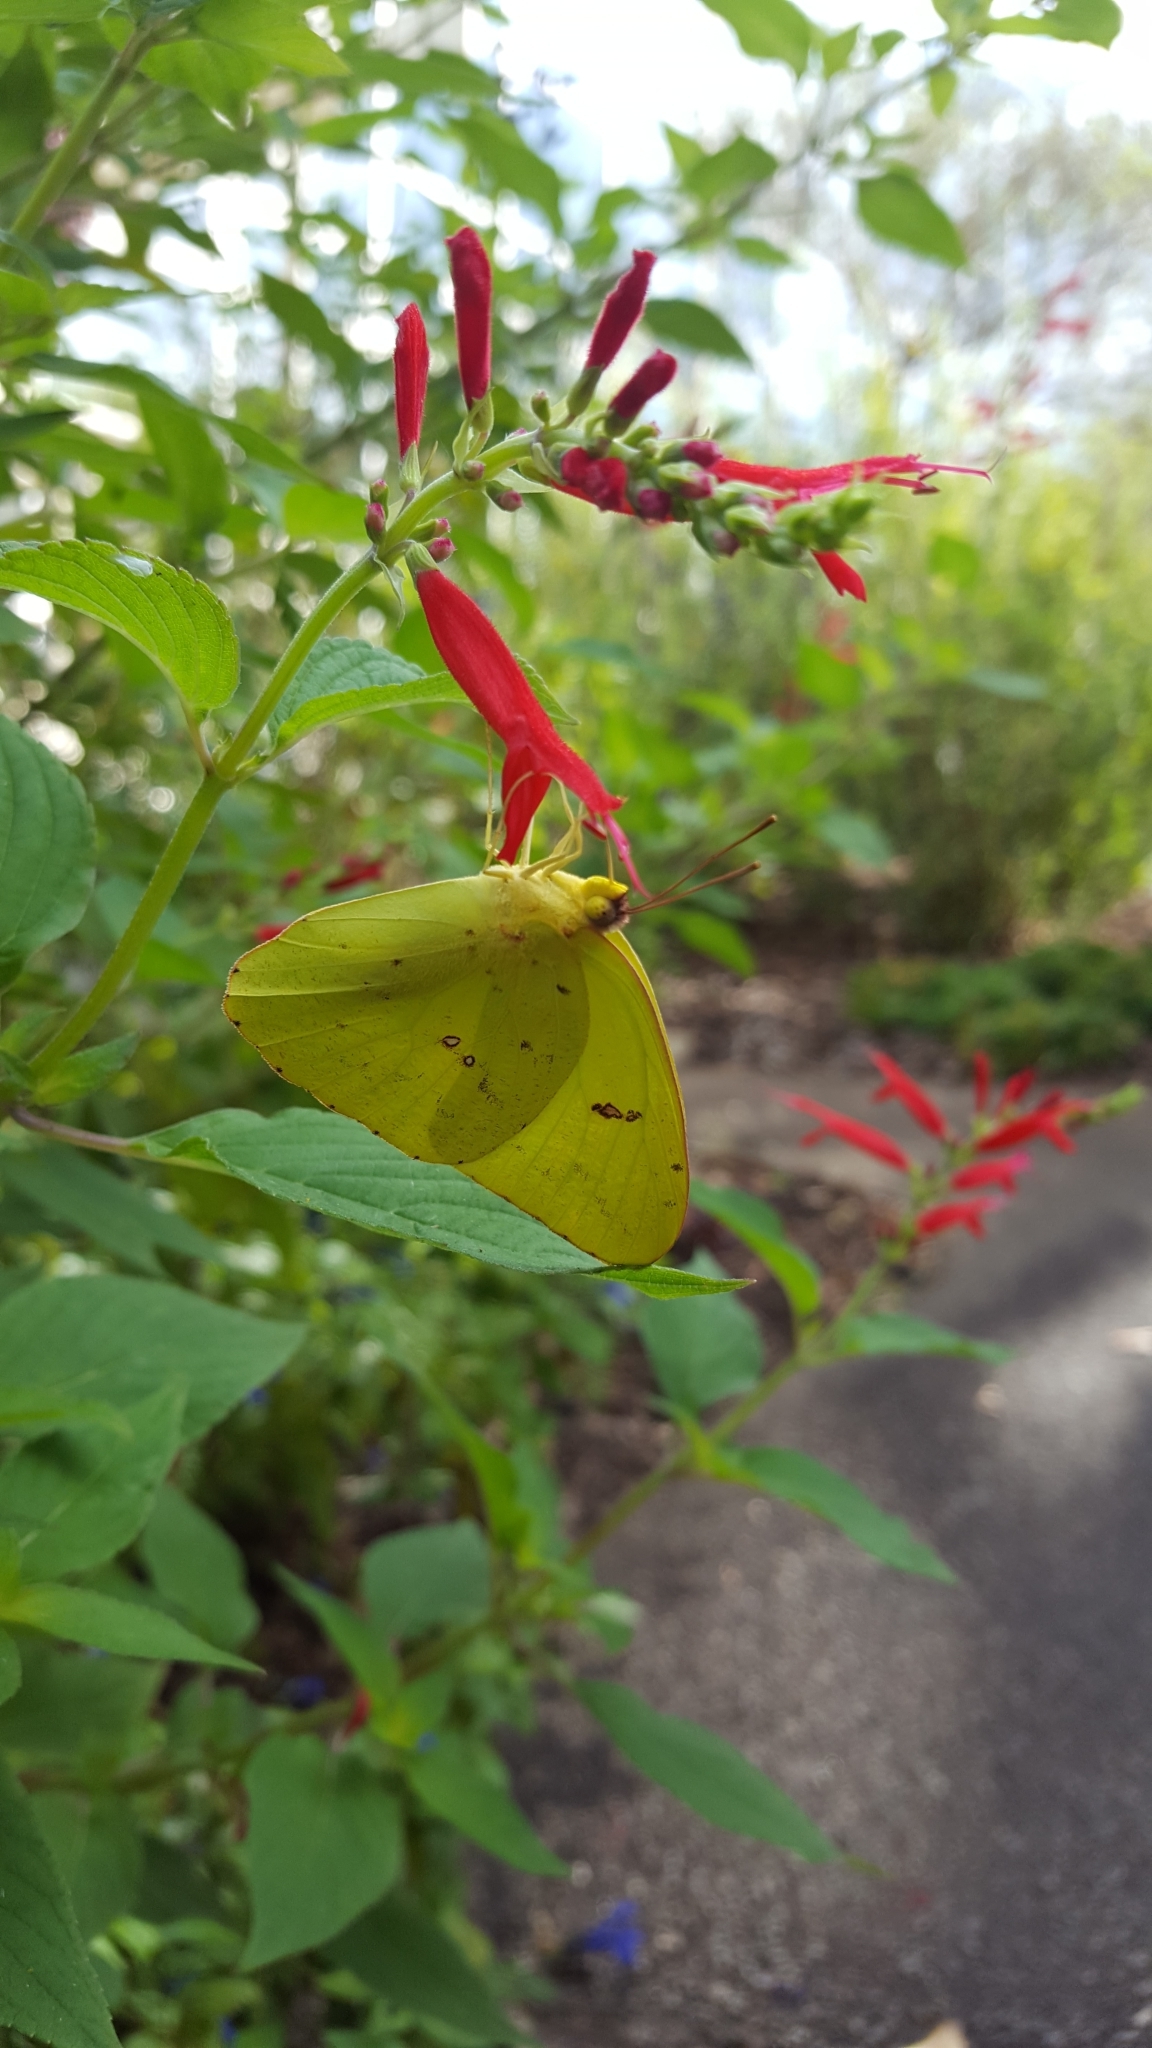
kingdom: Animalia
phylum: Arthropoda
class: Insecta
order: Lepidoptera
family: Pieridae
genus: Phoebis
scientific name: Phoebis sennae
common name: Cloudless sulphur
